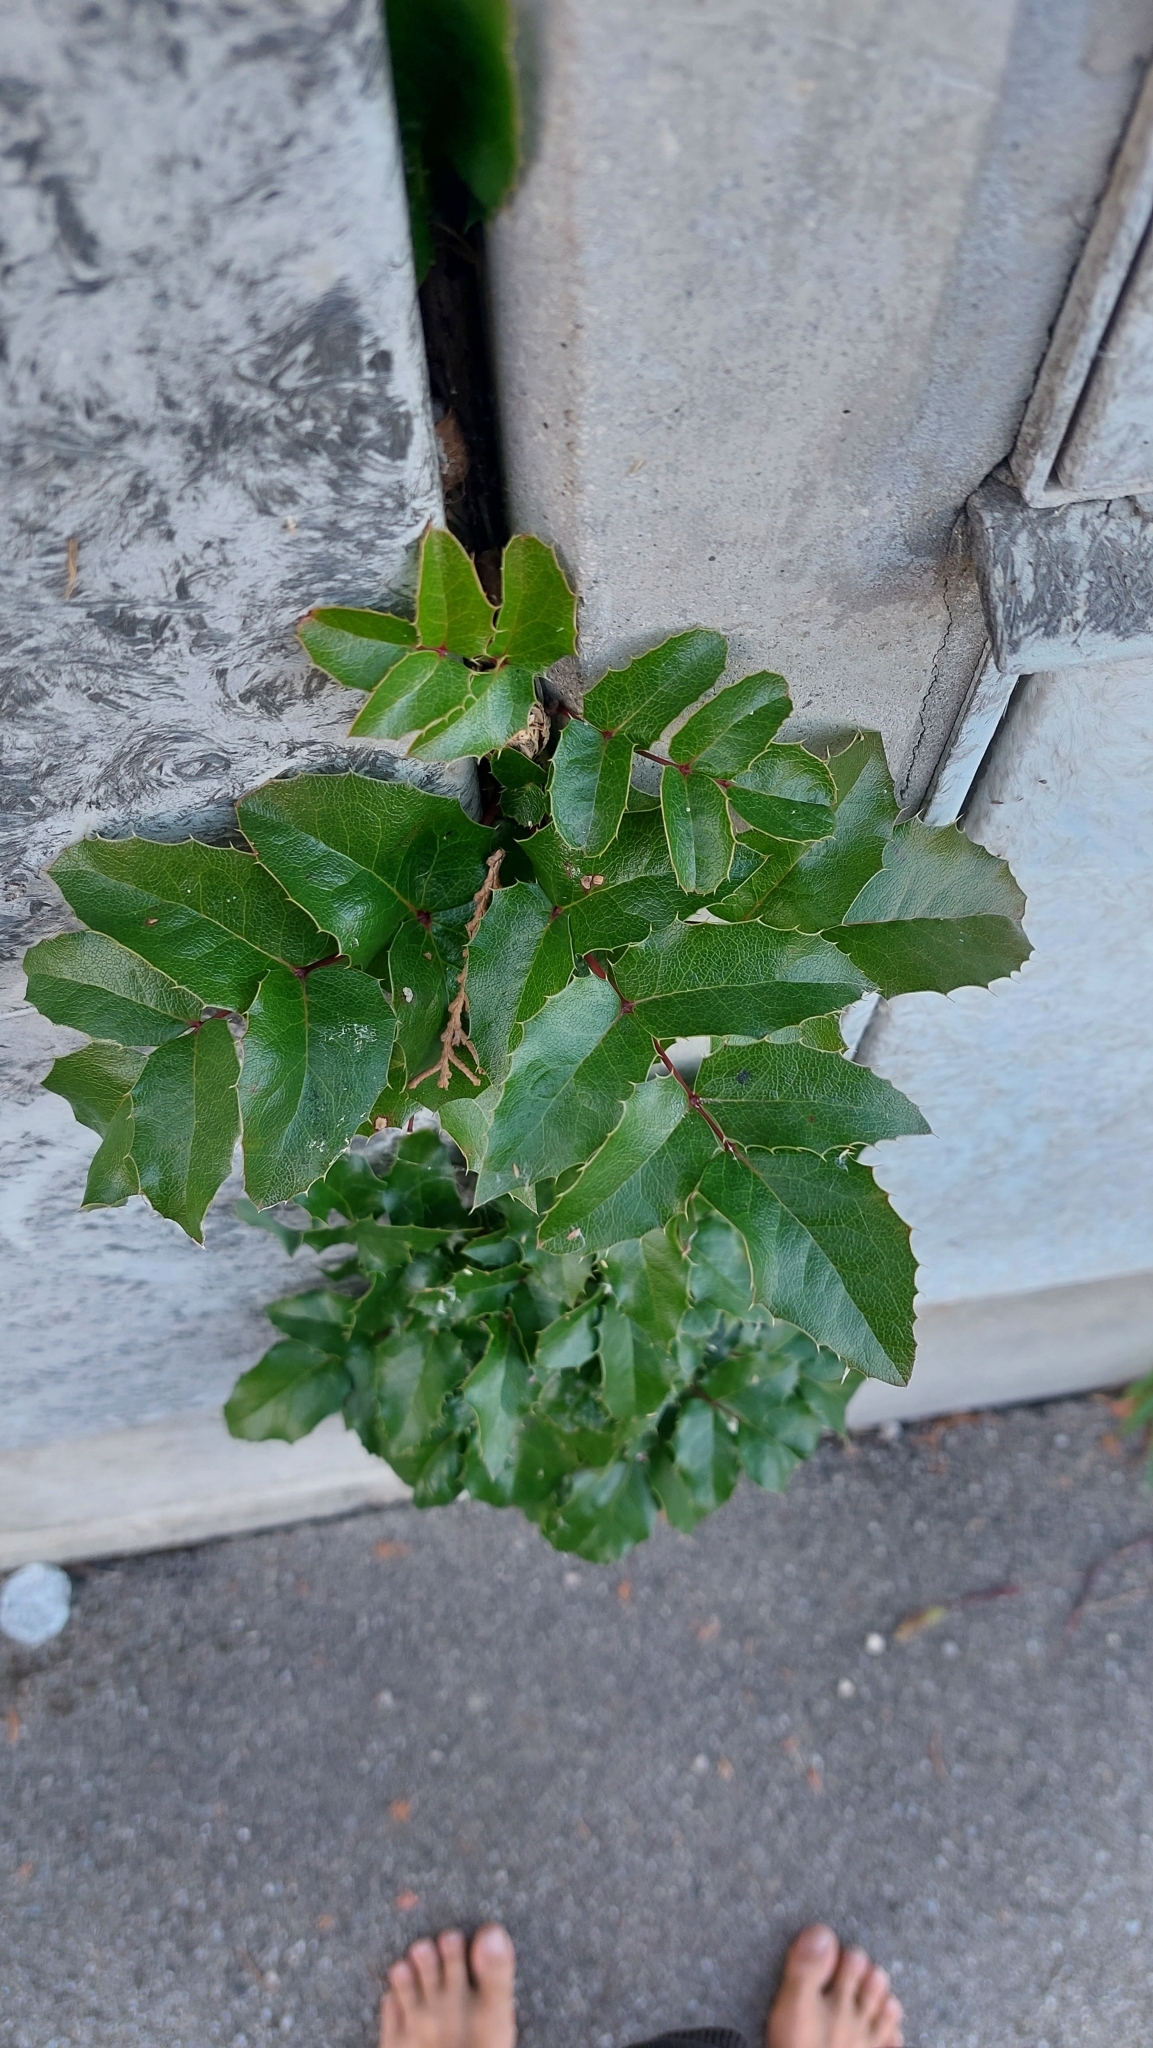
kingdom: Plantae
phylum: Tracheophyta
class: Magnoliopsida
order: Ranunculales
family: Berberidaceae
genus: Mahonia
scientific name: Mahonia aquifolium
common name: Oregon-grape
